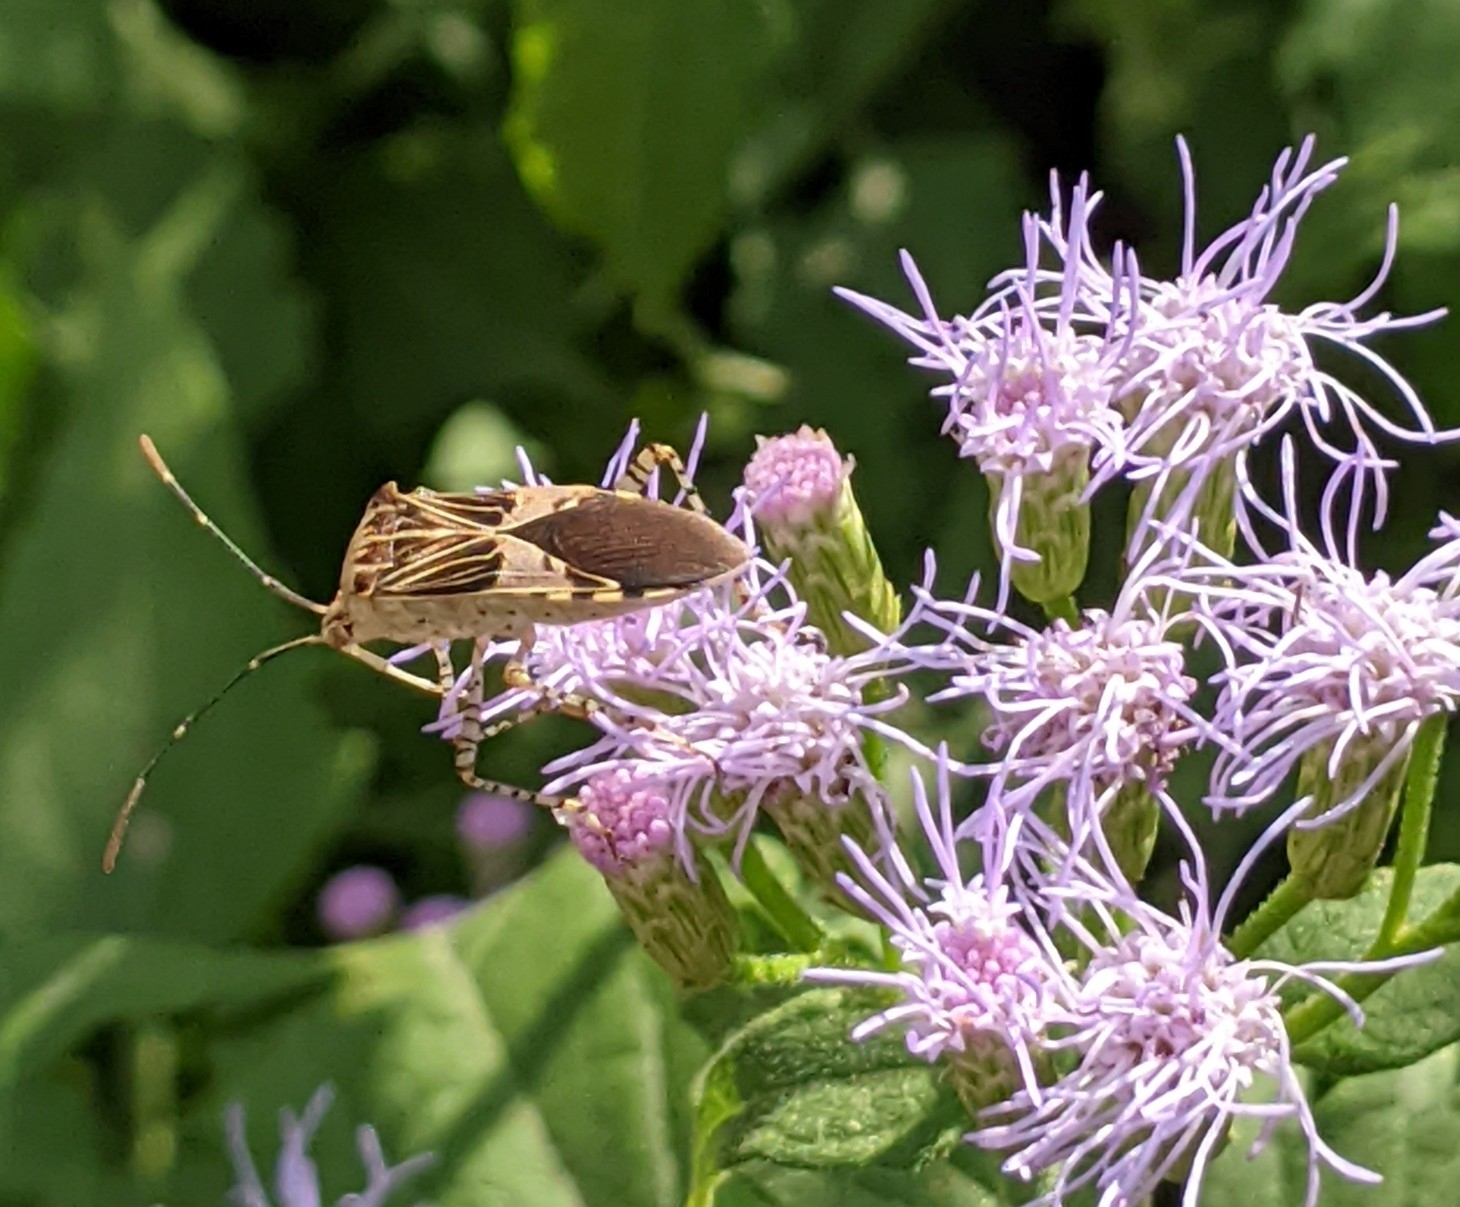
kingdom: Animalia
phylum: Arthropoda
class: Insecta
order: Hemiptera
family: Coreidae
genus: Hypselonotus
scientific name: Hypselonotus punctiventris
